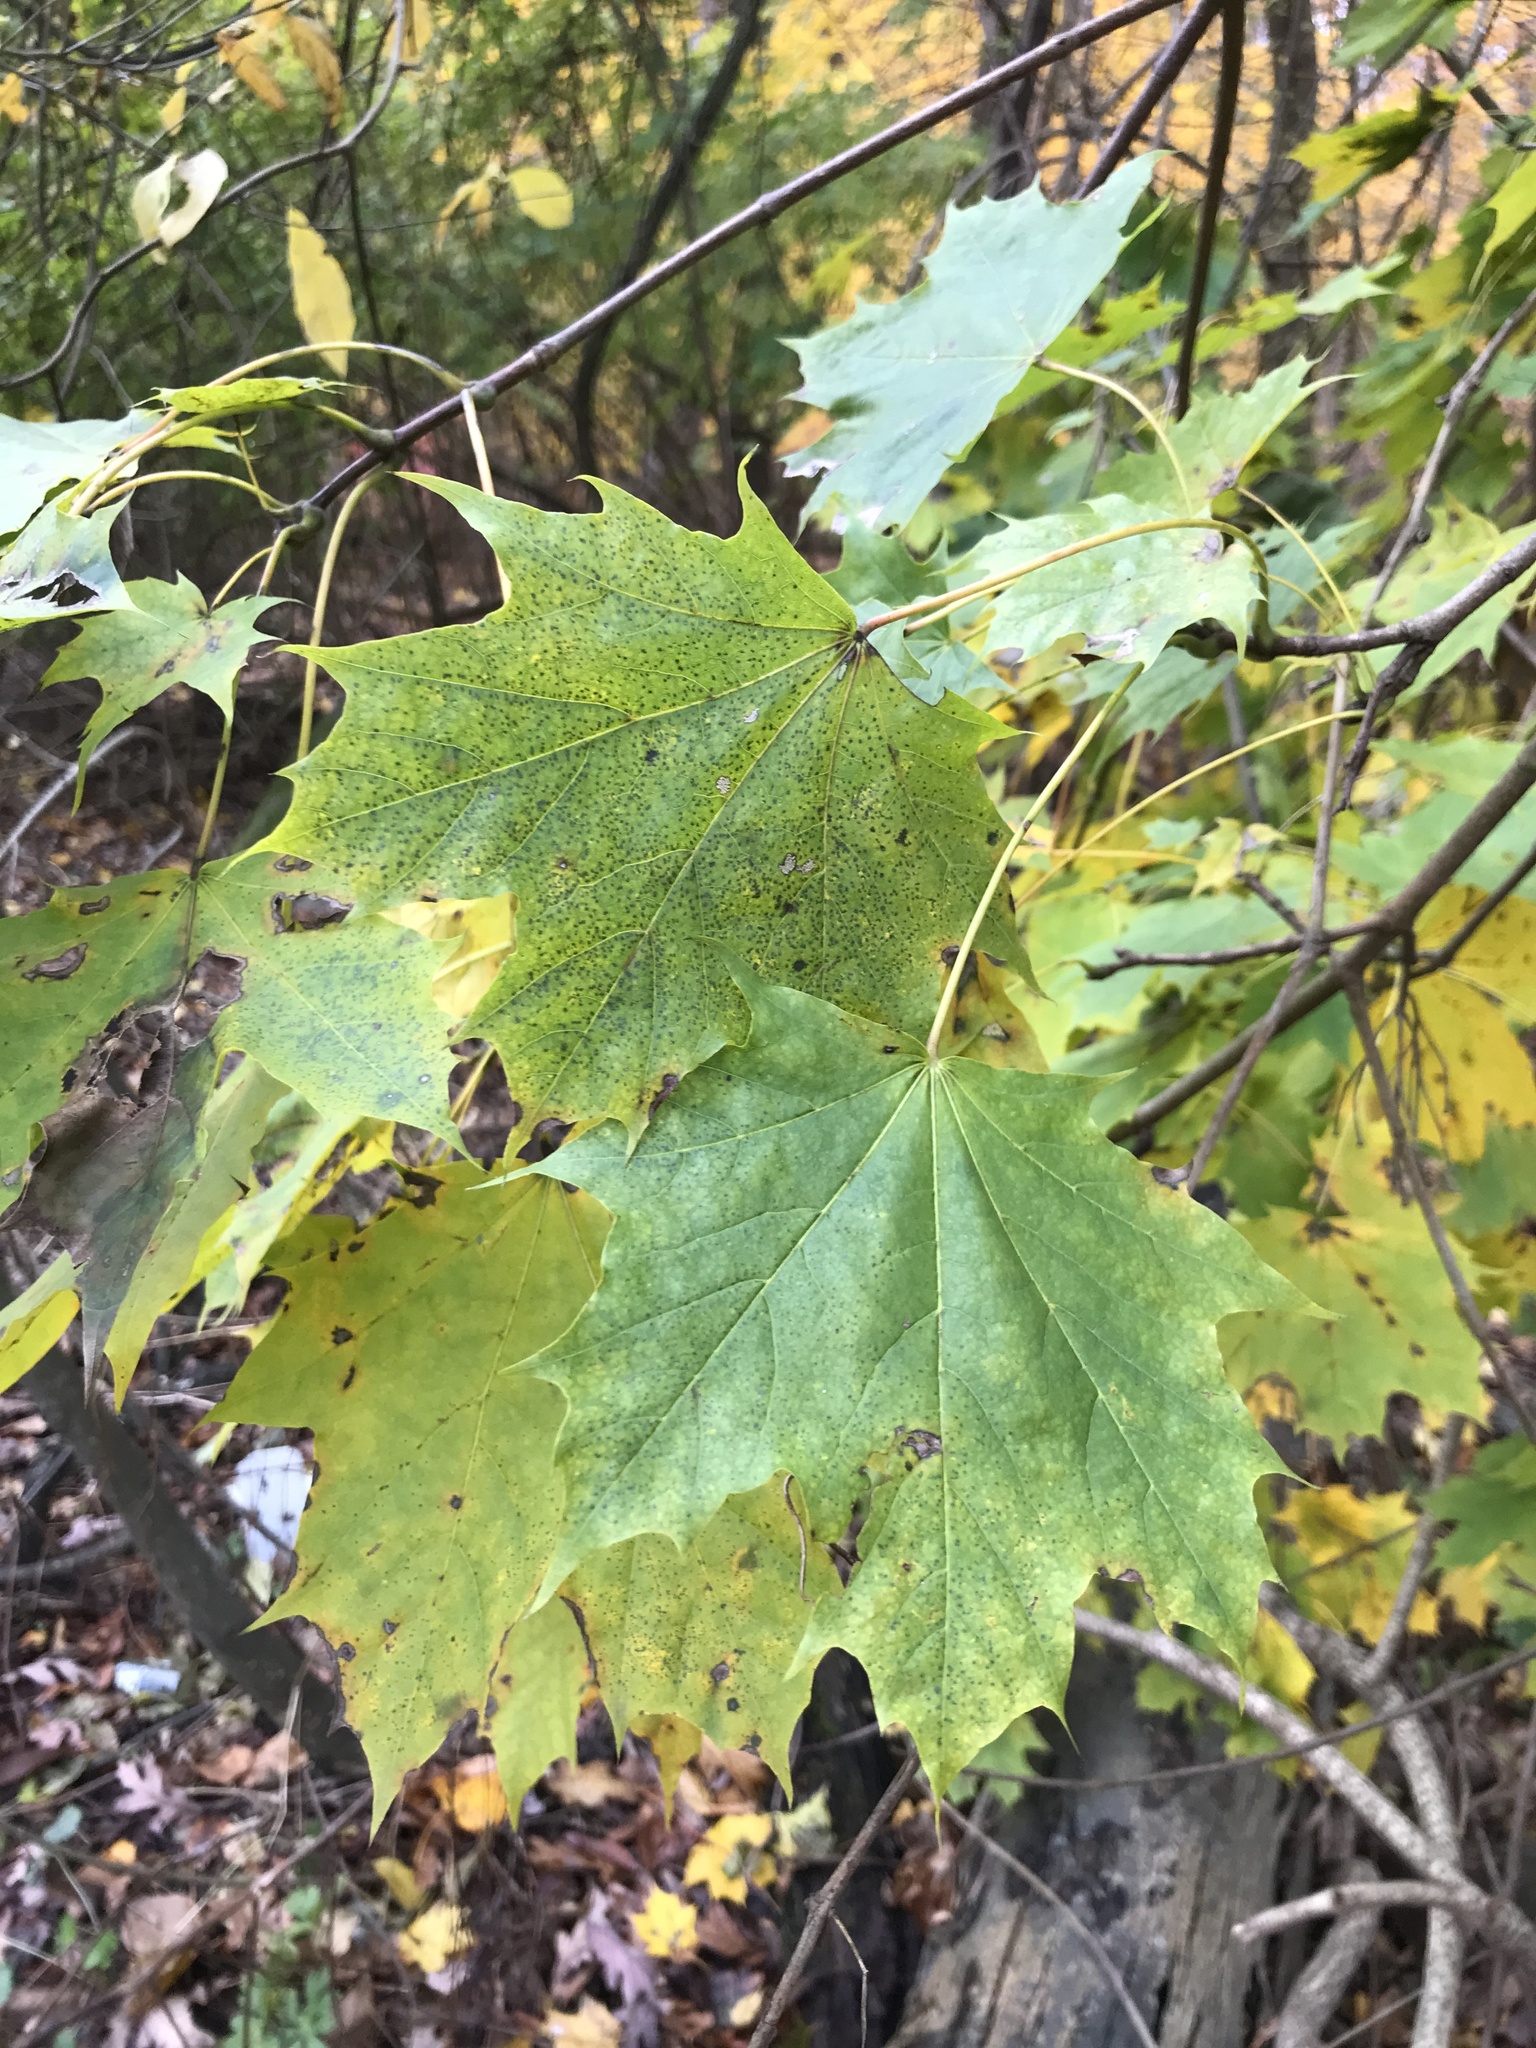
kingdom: Plantae
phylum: Tracheophyta
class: Magnoliopsida
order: Sapindales
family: Sapindaceae
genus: Acer
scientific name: Acer platanoides
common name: Norway maple
